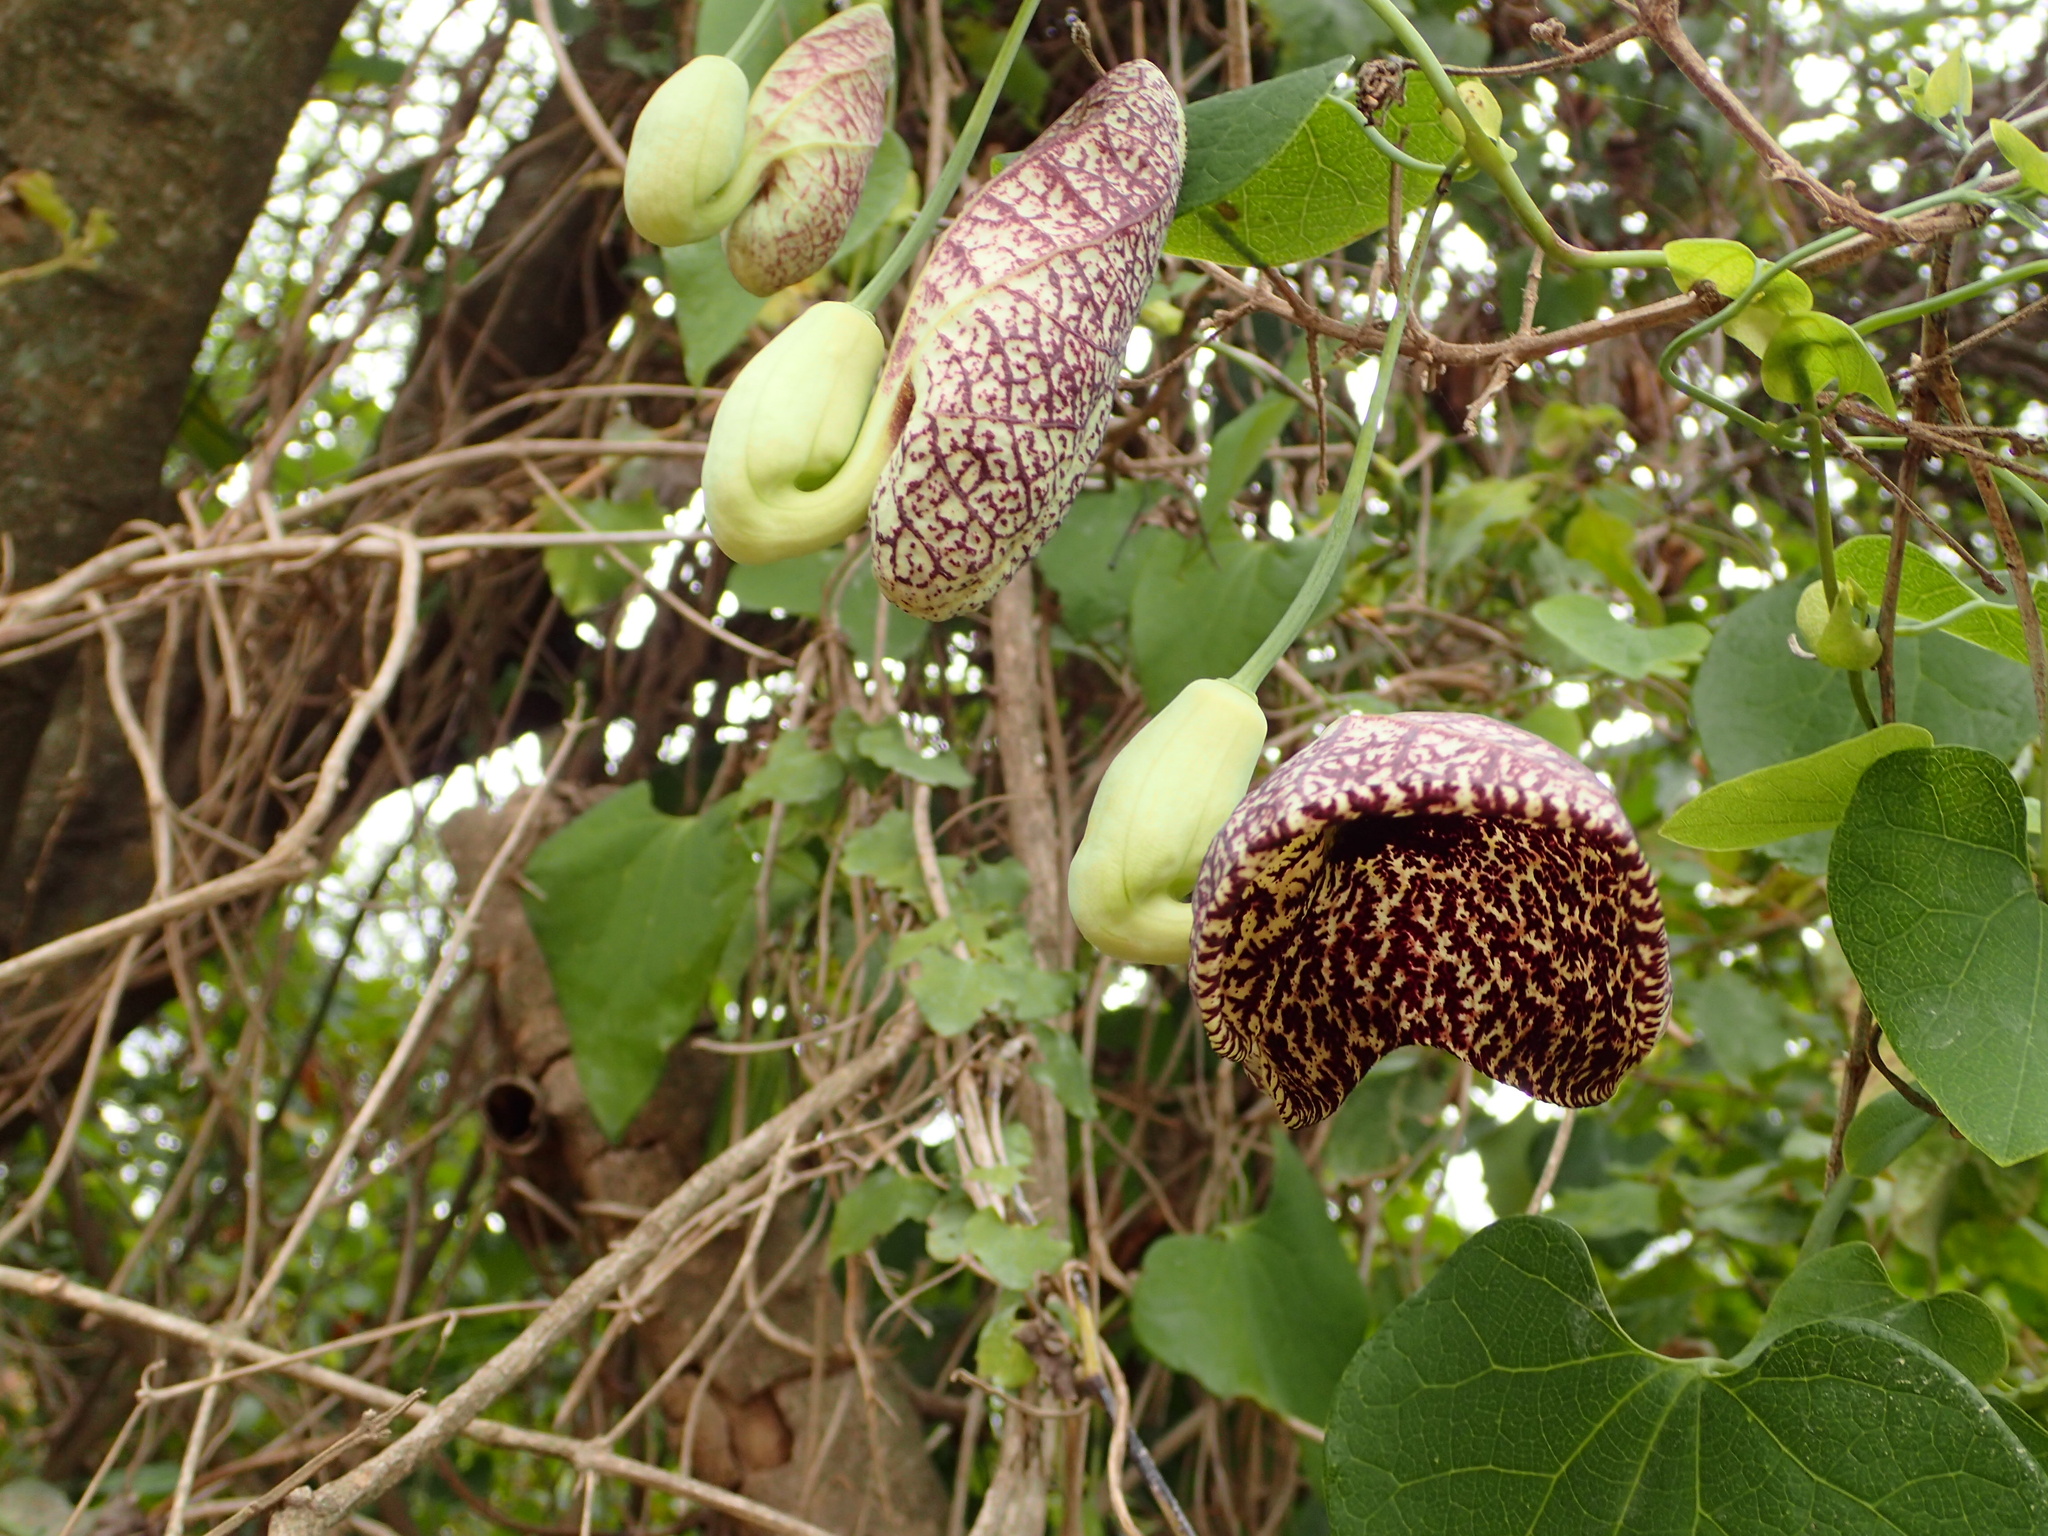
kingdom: Plantae
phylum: Tracheophyta
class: Magnoliopsida
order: Piperales
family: Aristolochiaceae
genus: Aristolochia
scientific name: Aristolochia littoralis
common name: Duck
